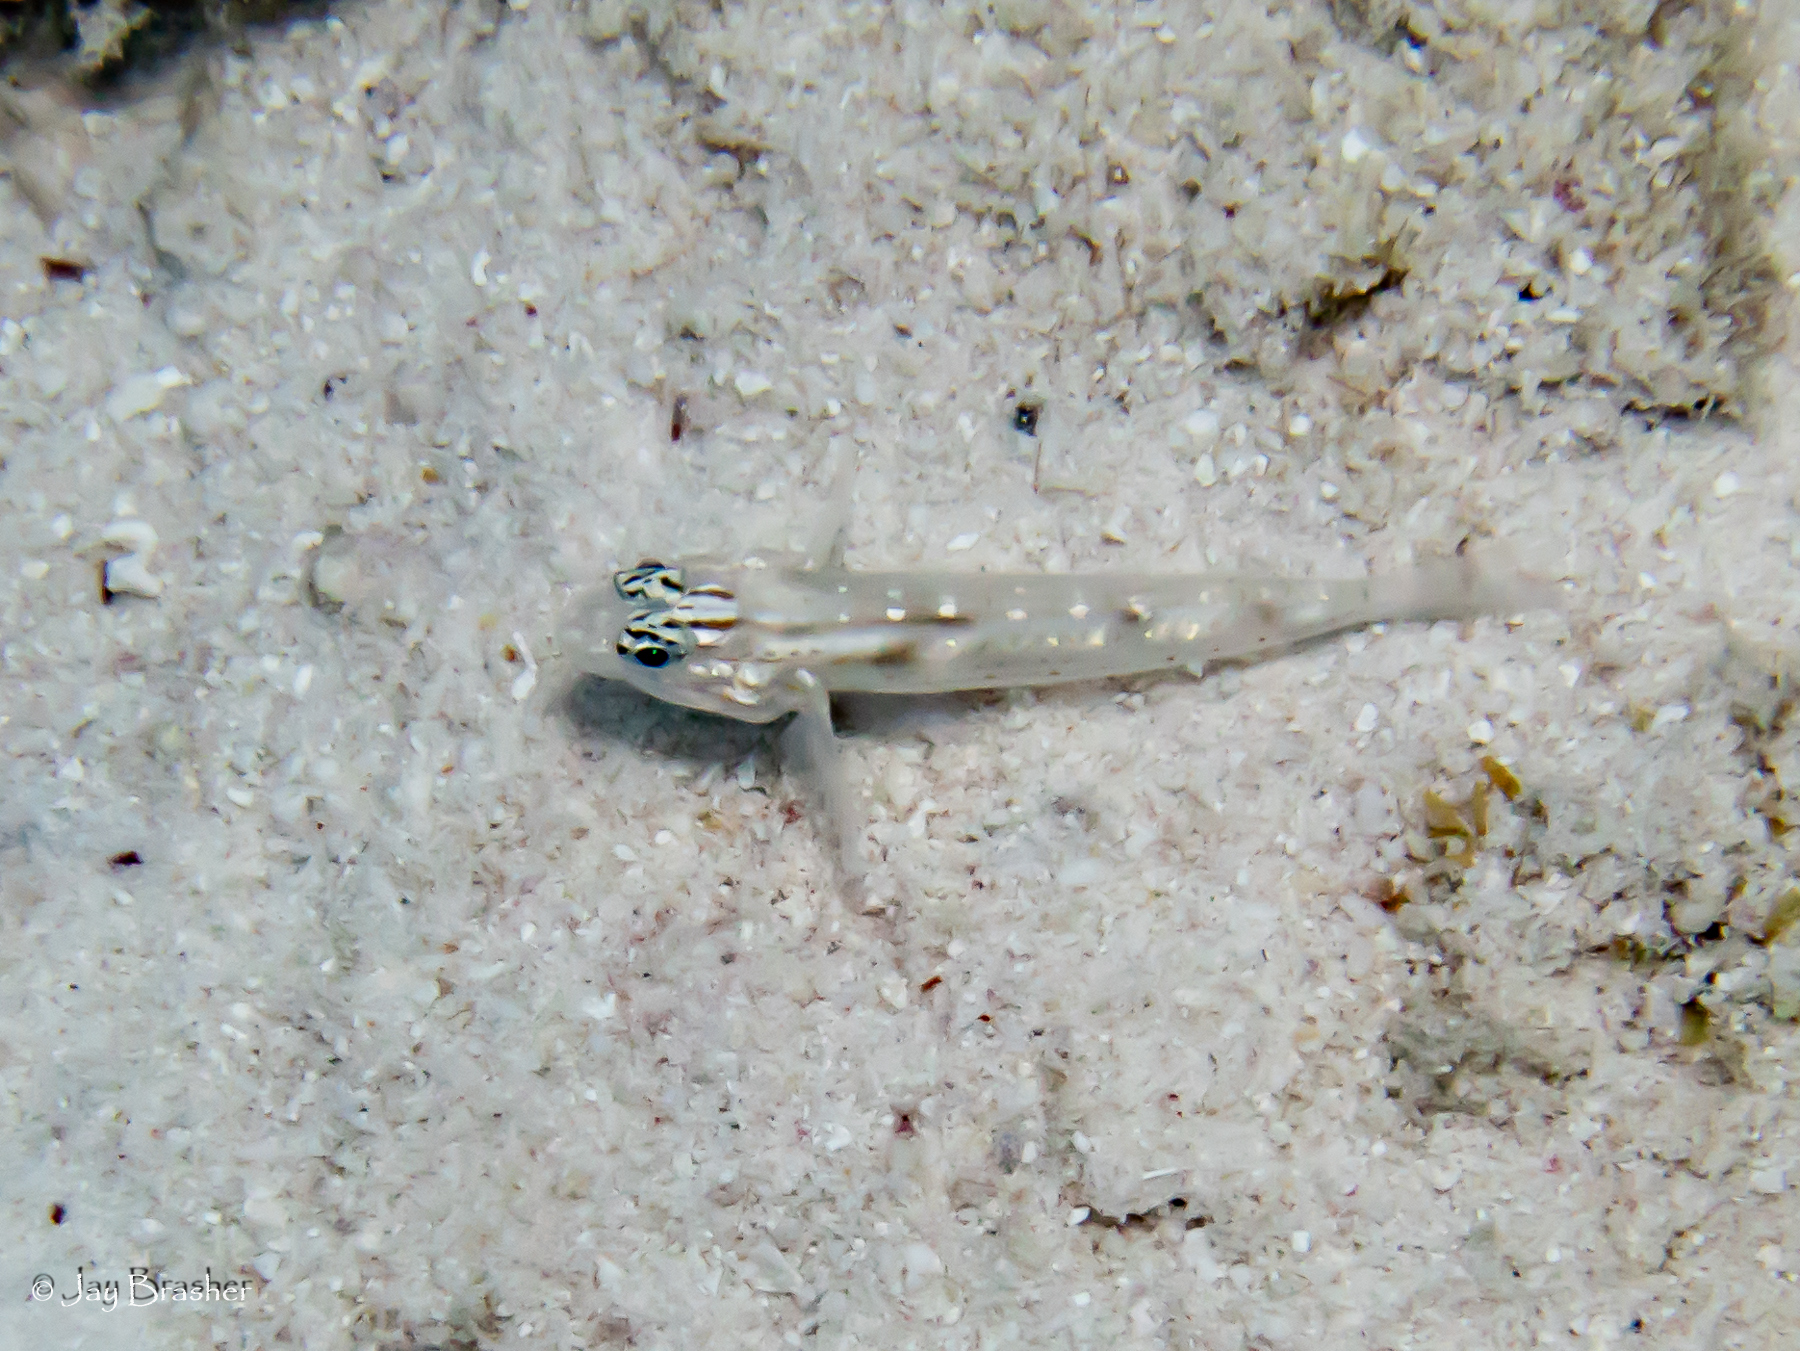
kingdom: Animalia
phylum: Chordata
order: Perciformes
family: Gobiidae
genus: Coryphopterus
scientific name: Coryphopterus tortugae
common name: Patch-reef goby
